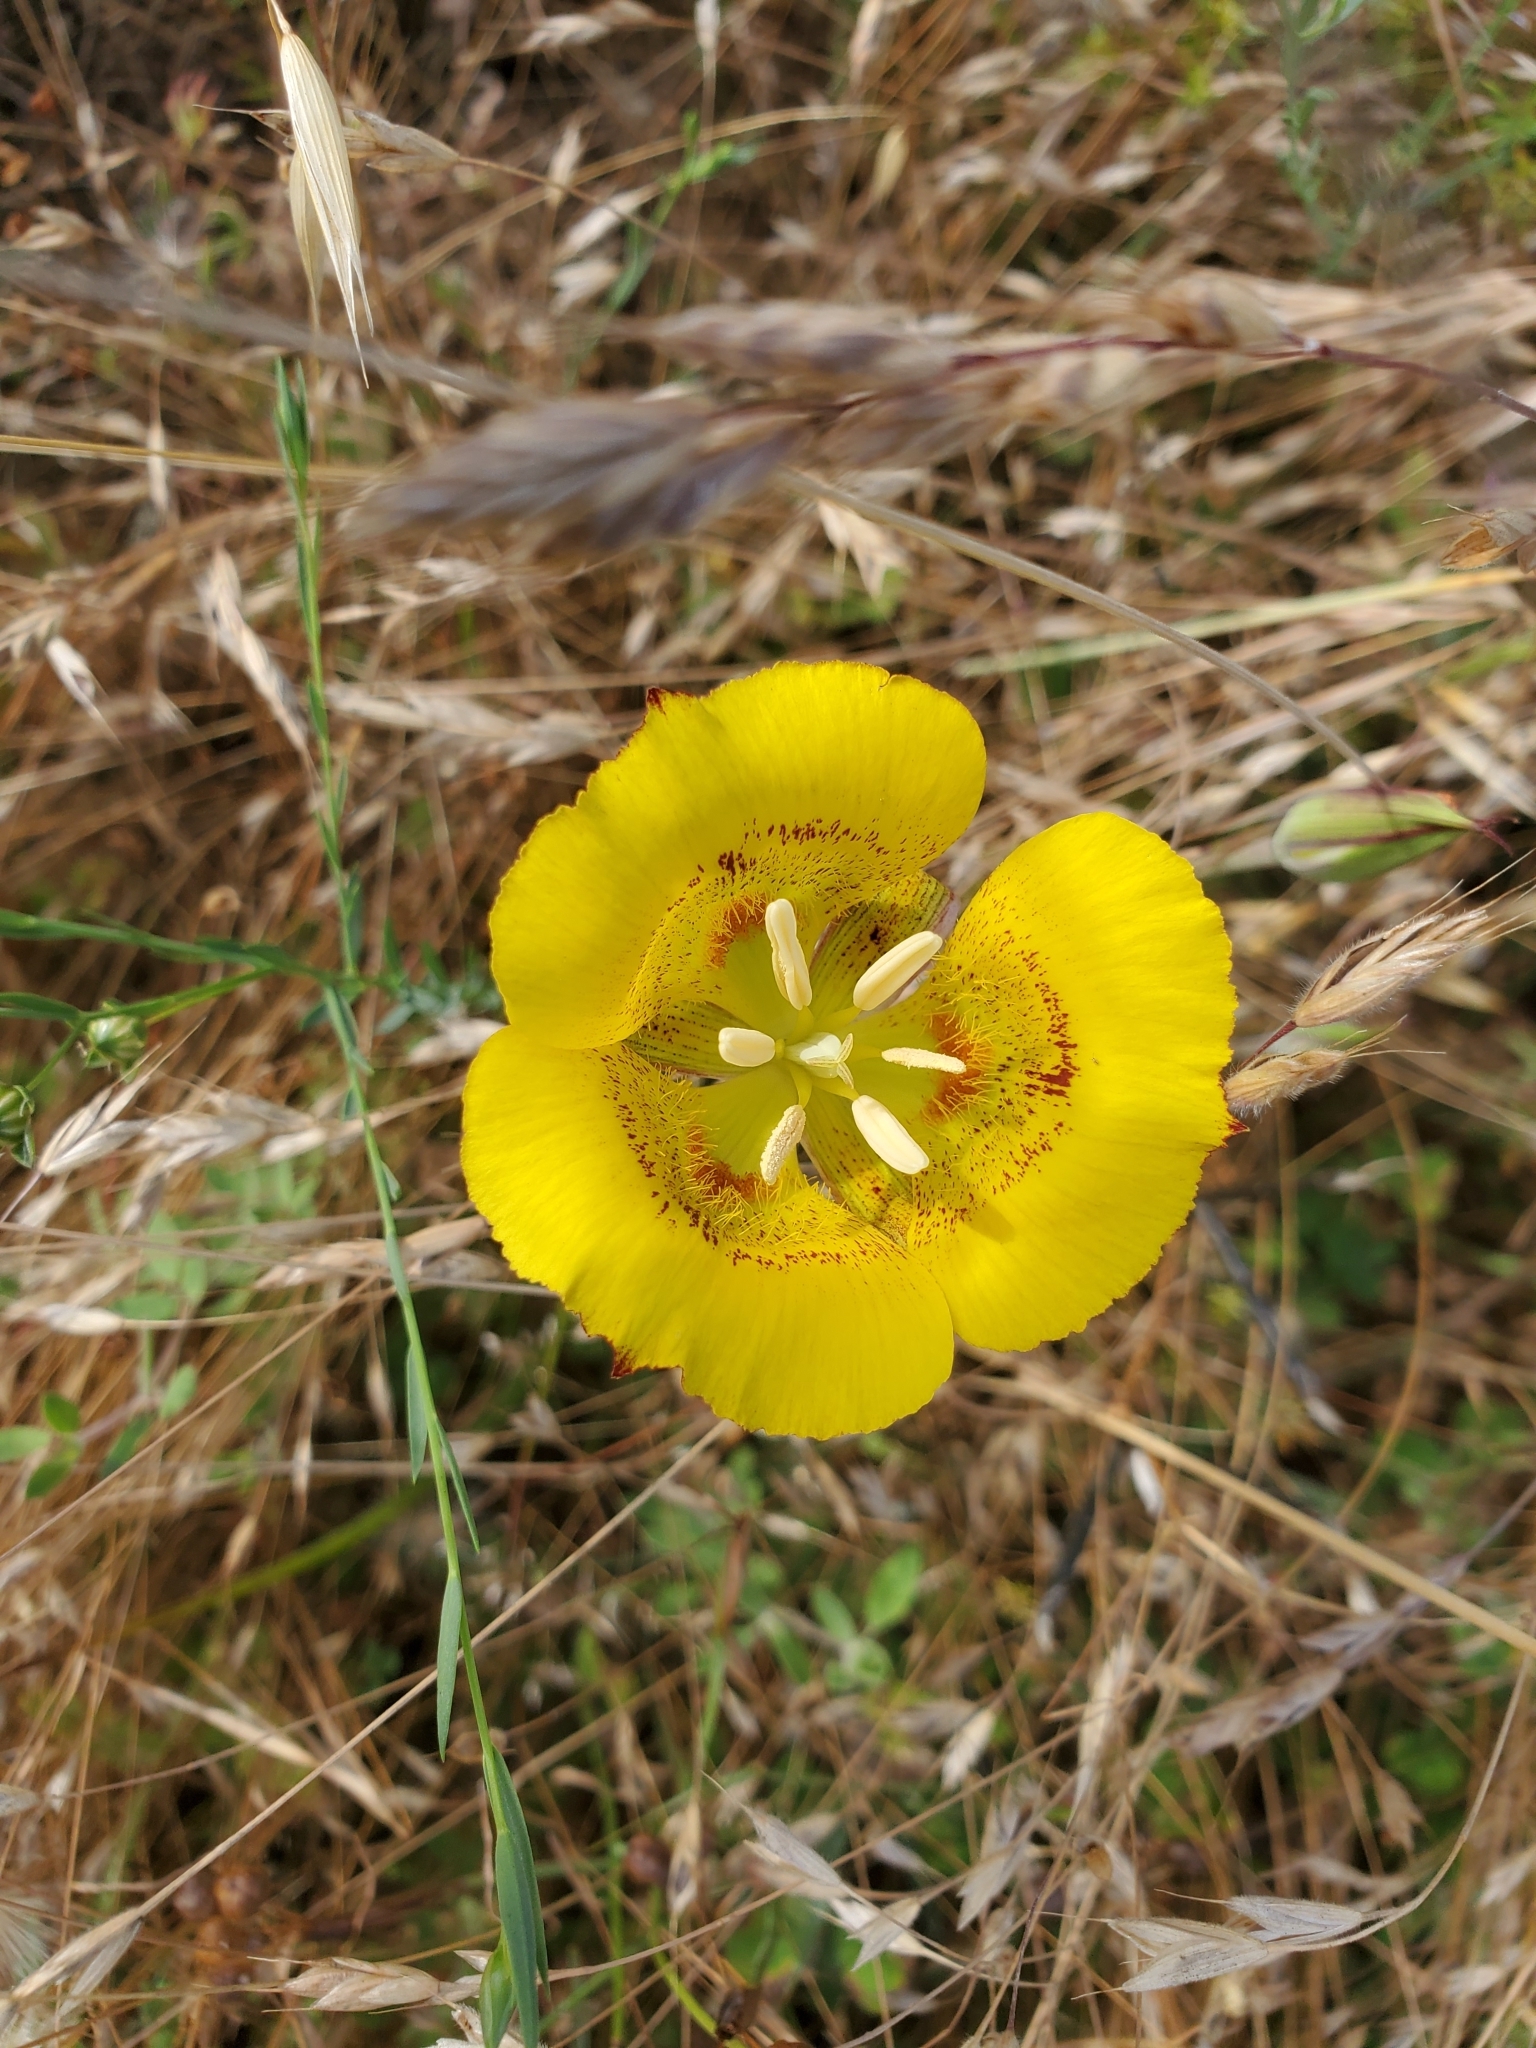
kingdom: Plantae
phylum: Tracheophyta
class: Liliopsida
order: Liliales
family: Liliaceae
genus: Calochortus
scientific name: Calochortus luteus
